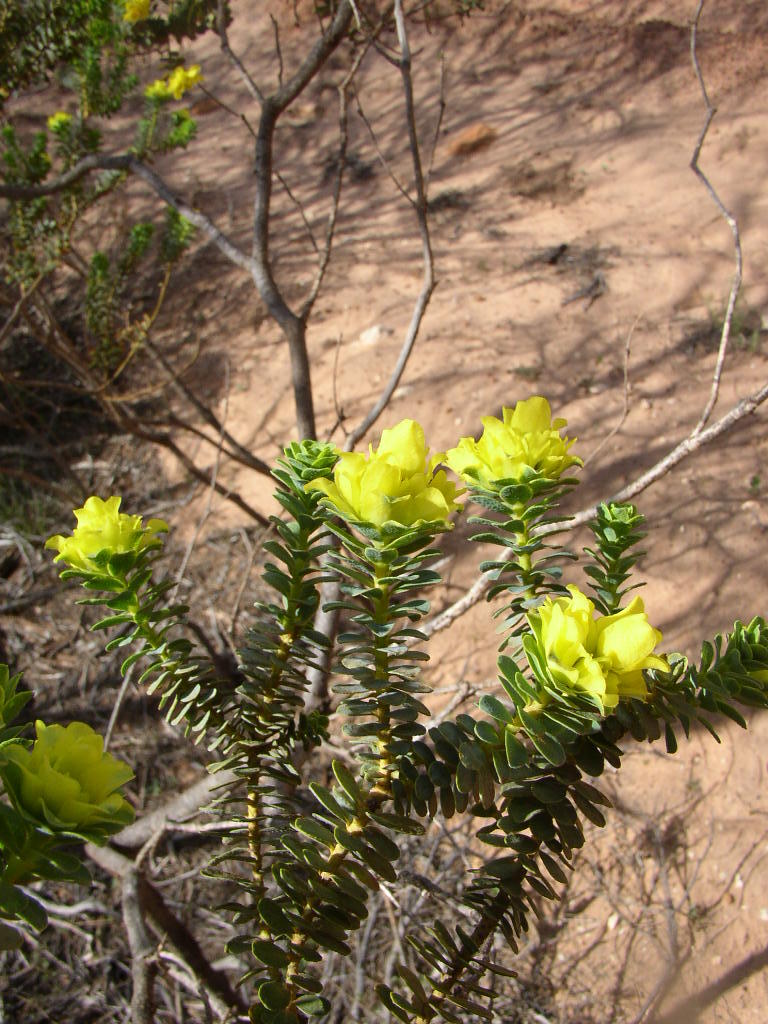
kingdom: Plantae
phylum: Tracheophyta
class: Magnoliopsida
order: Sapindales
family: Rutaceae
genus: Geleznowia
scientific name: Geleznowia amabilis
